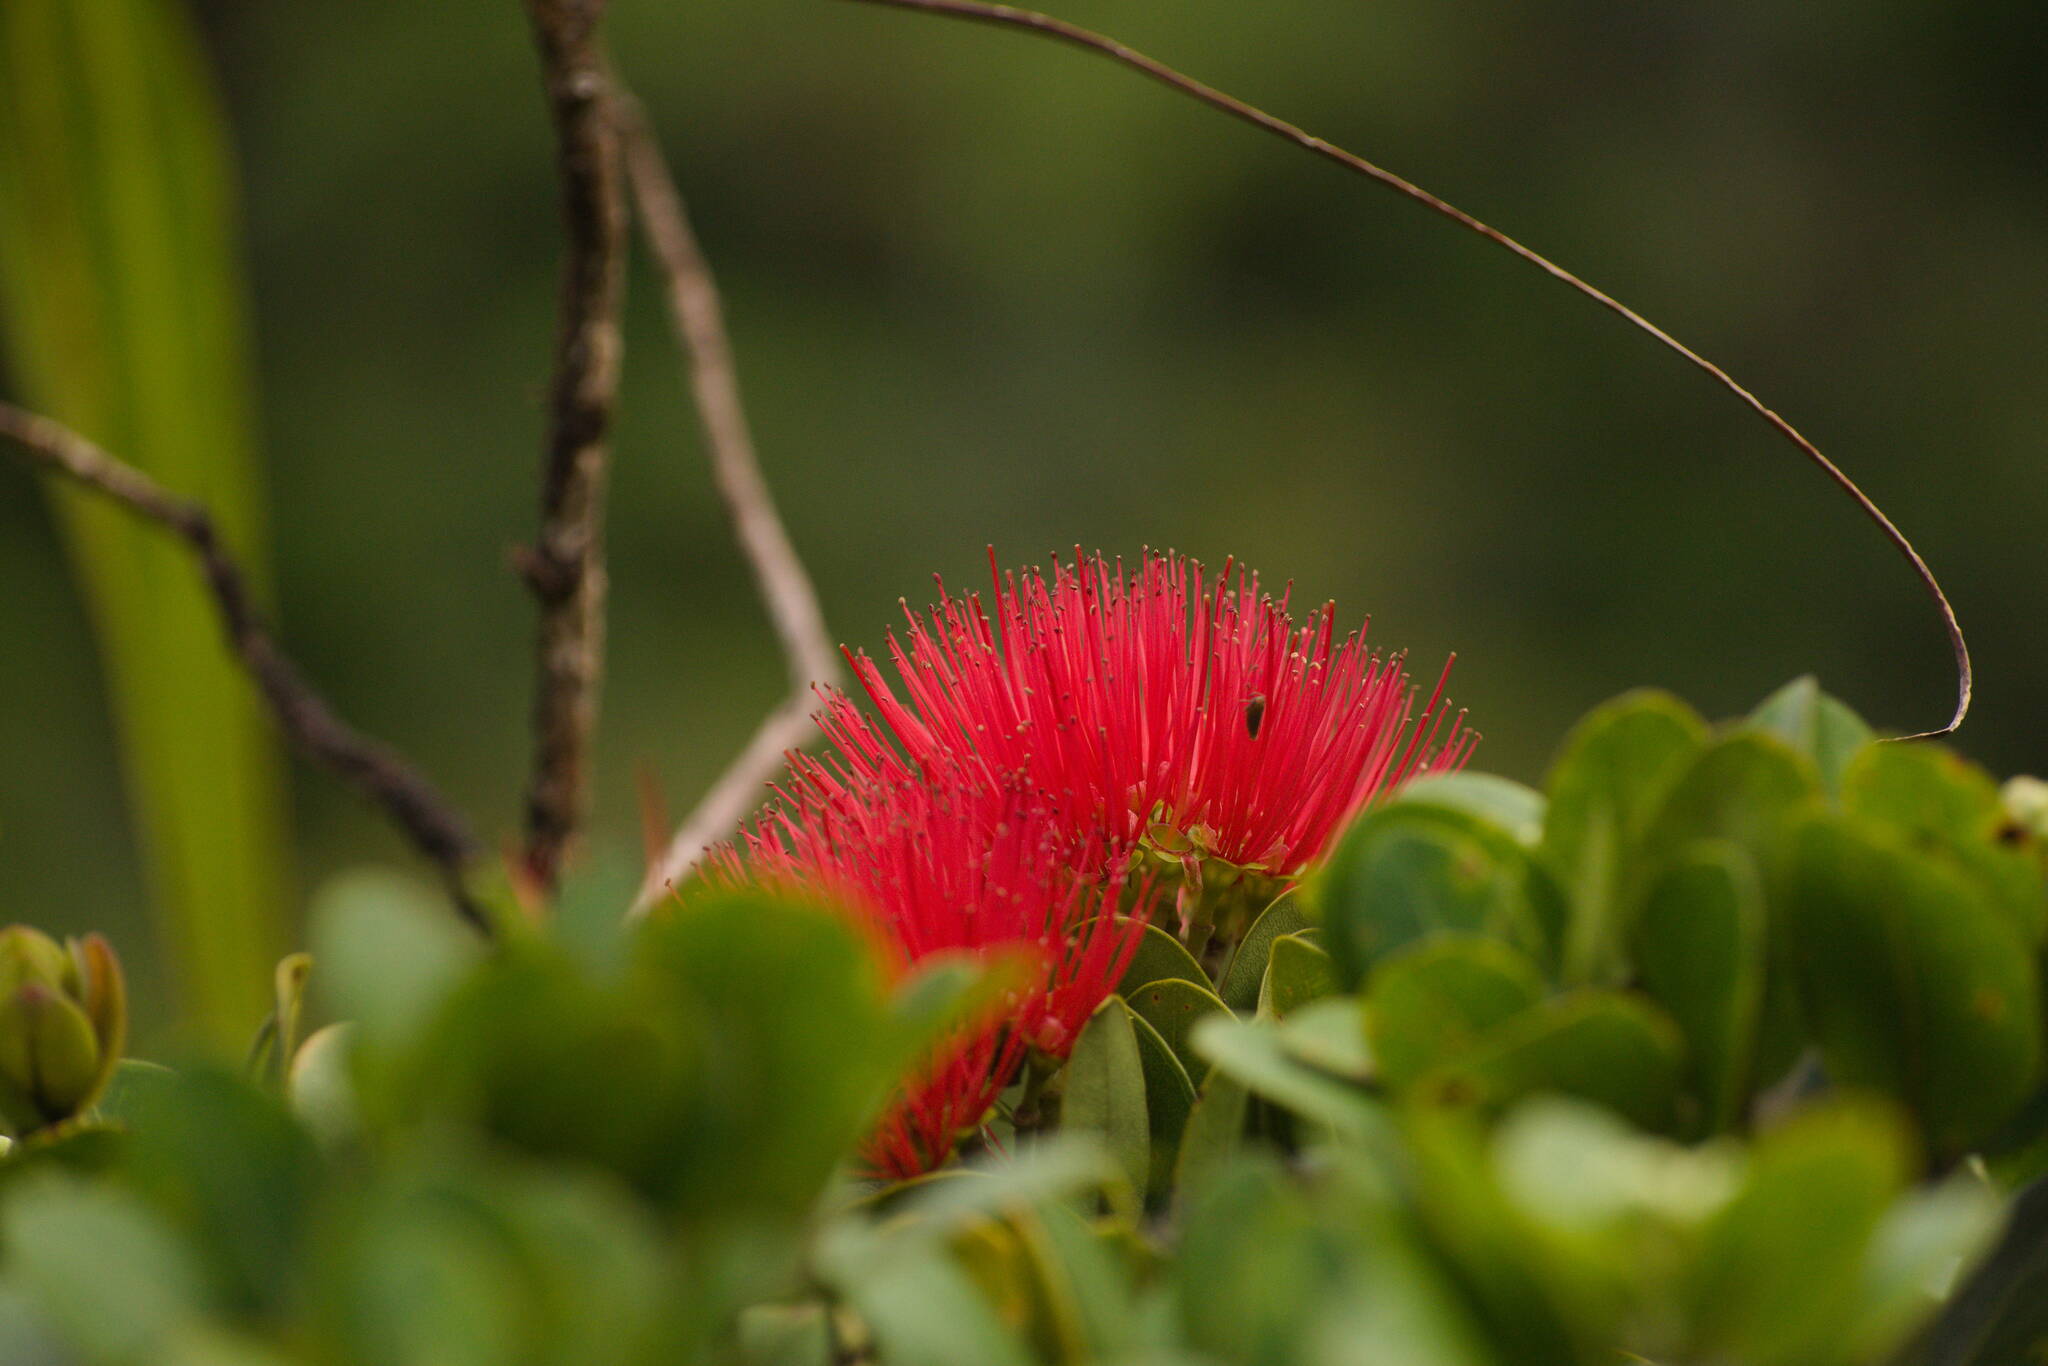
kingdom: Plantae
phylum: Tracheophyta
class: Magnoliopsida
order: Myrtales
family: Myrtaceae
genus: Metrosideros
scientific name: Metrosideros polymorpha
